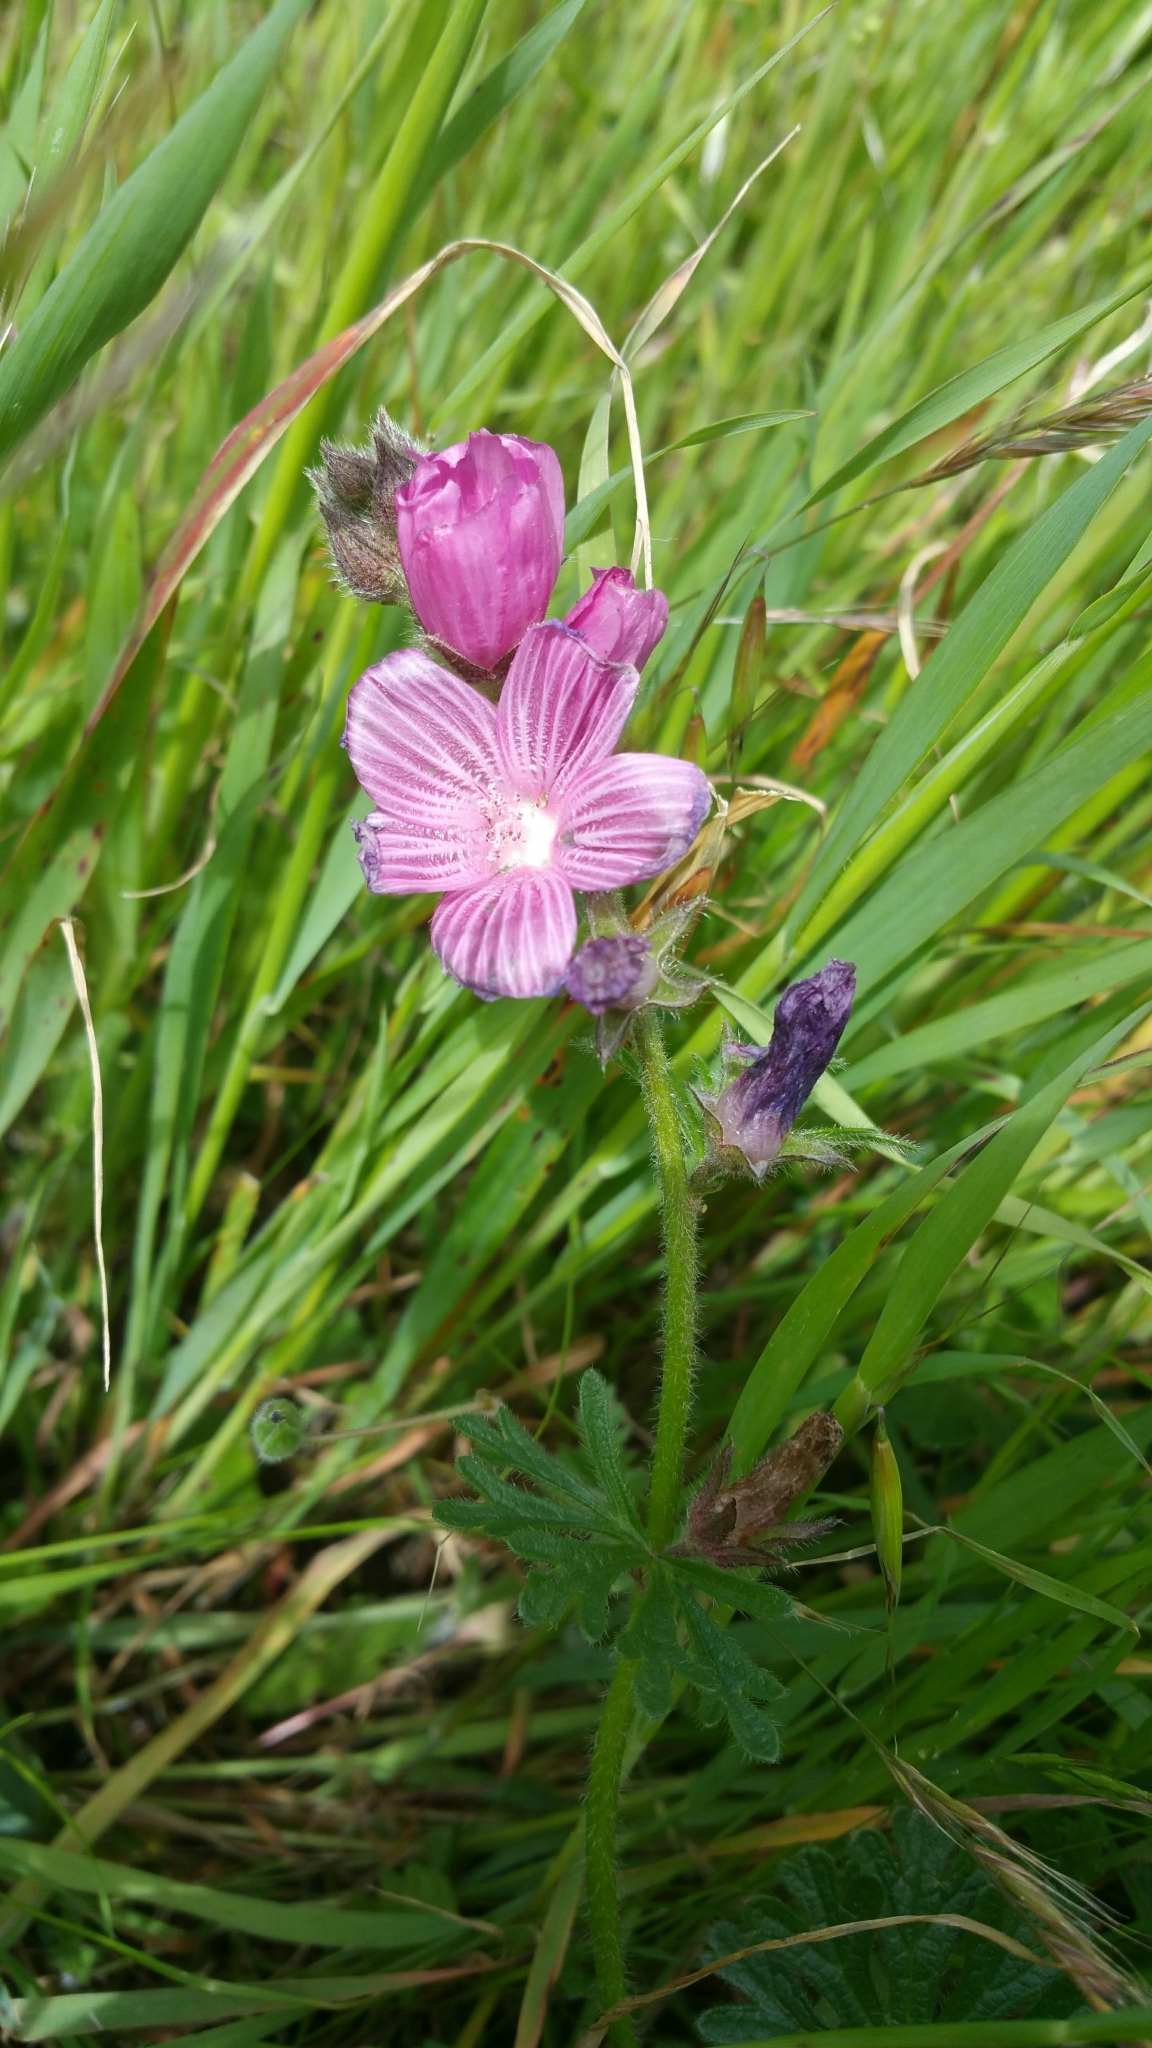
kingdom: Plantae
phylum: Tracheophyta
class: Magnoliopsida
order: Malvales
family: Malvaceae
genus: Sidalcea
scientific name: Sidalcea malviflora
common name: Greek mallow
